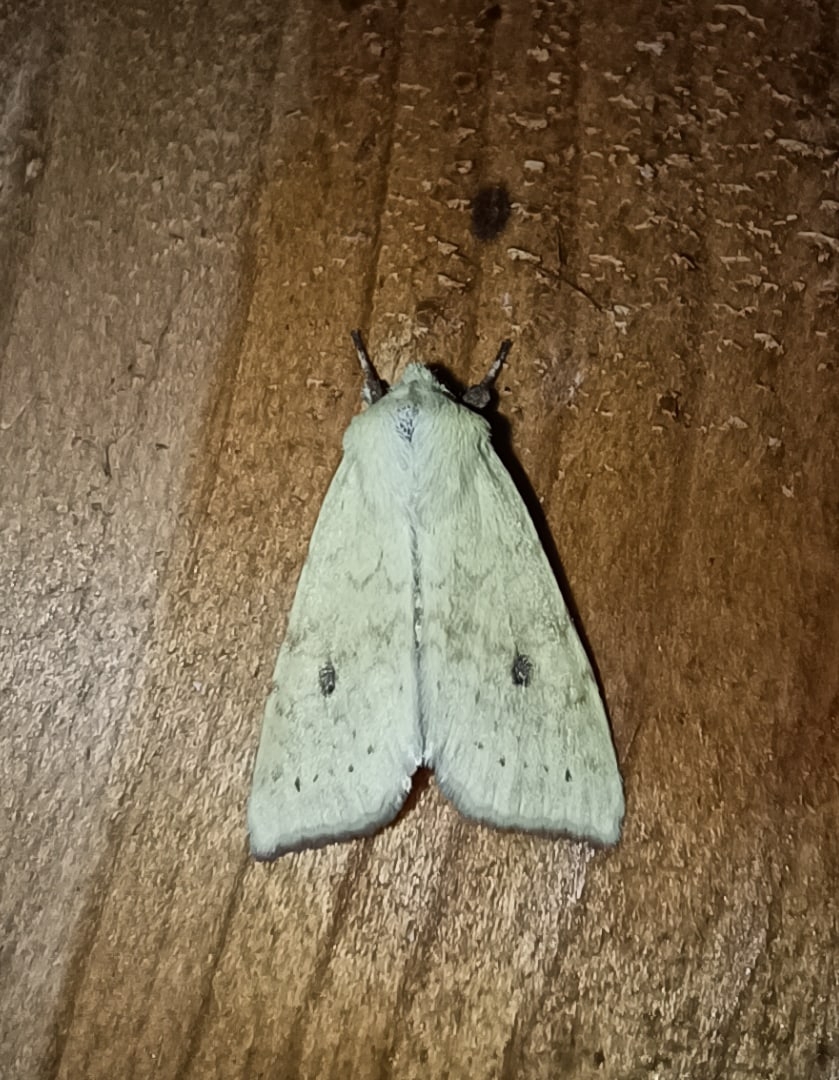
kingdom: Animalia
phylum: Arthropoda
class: Insecta
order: Lepidoptera
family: Noctuidae
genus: Xanthia
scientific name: Xanthia icteritia
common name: The sallow
